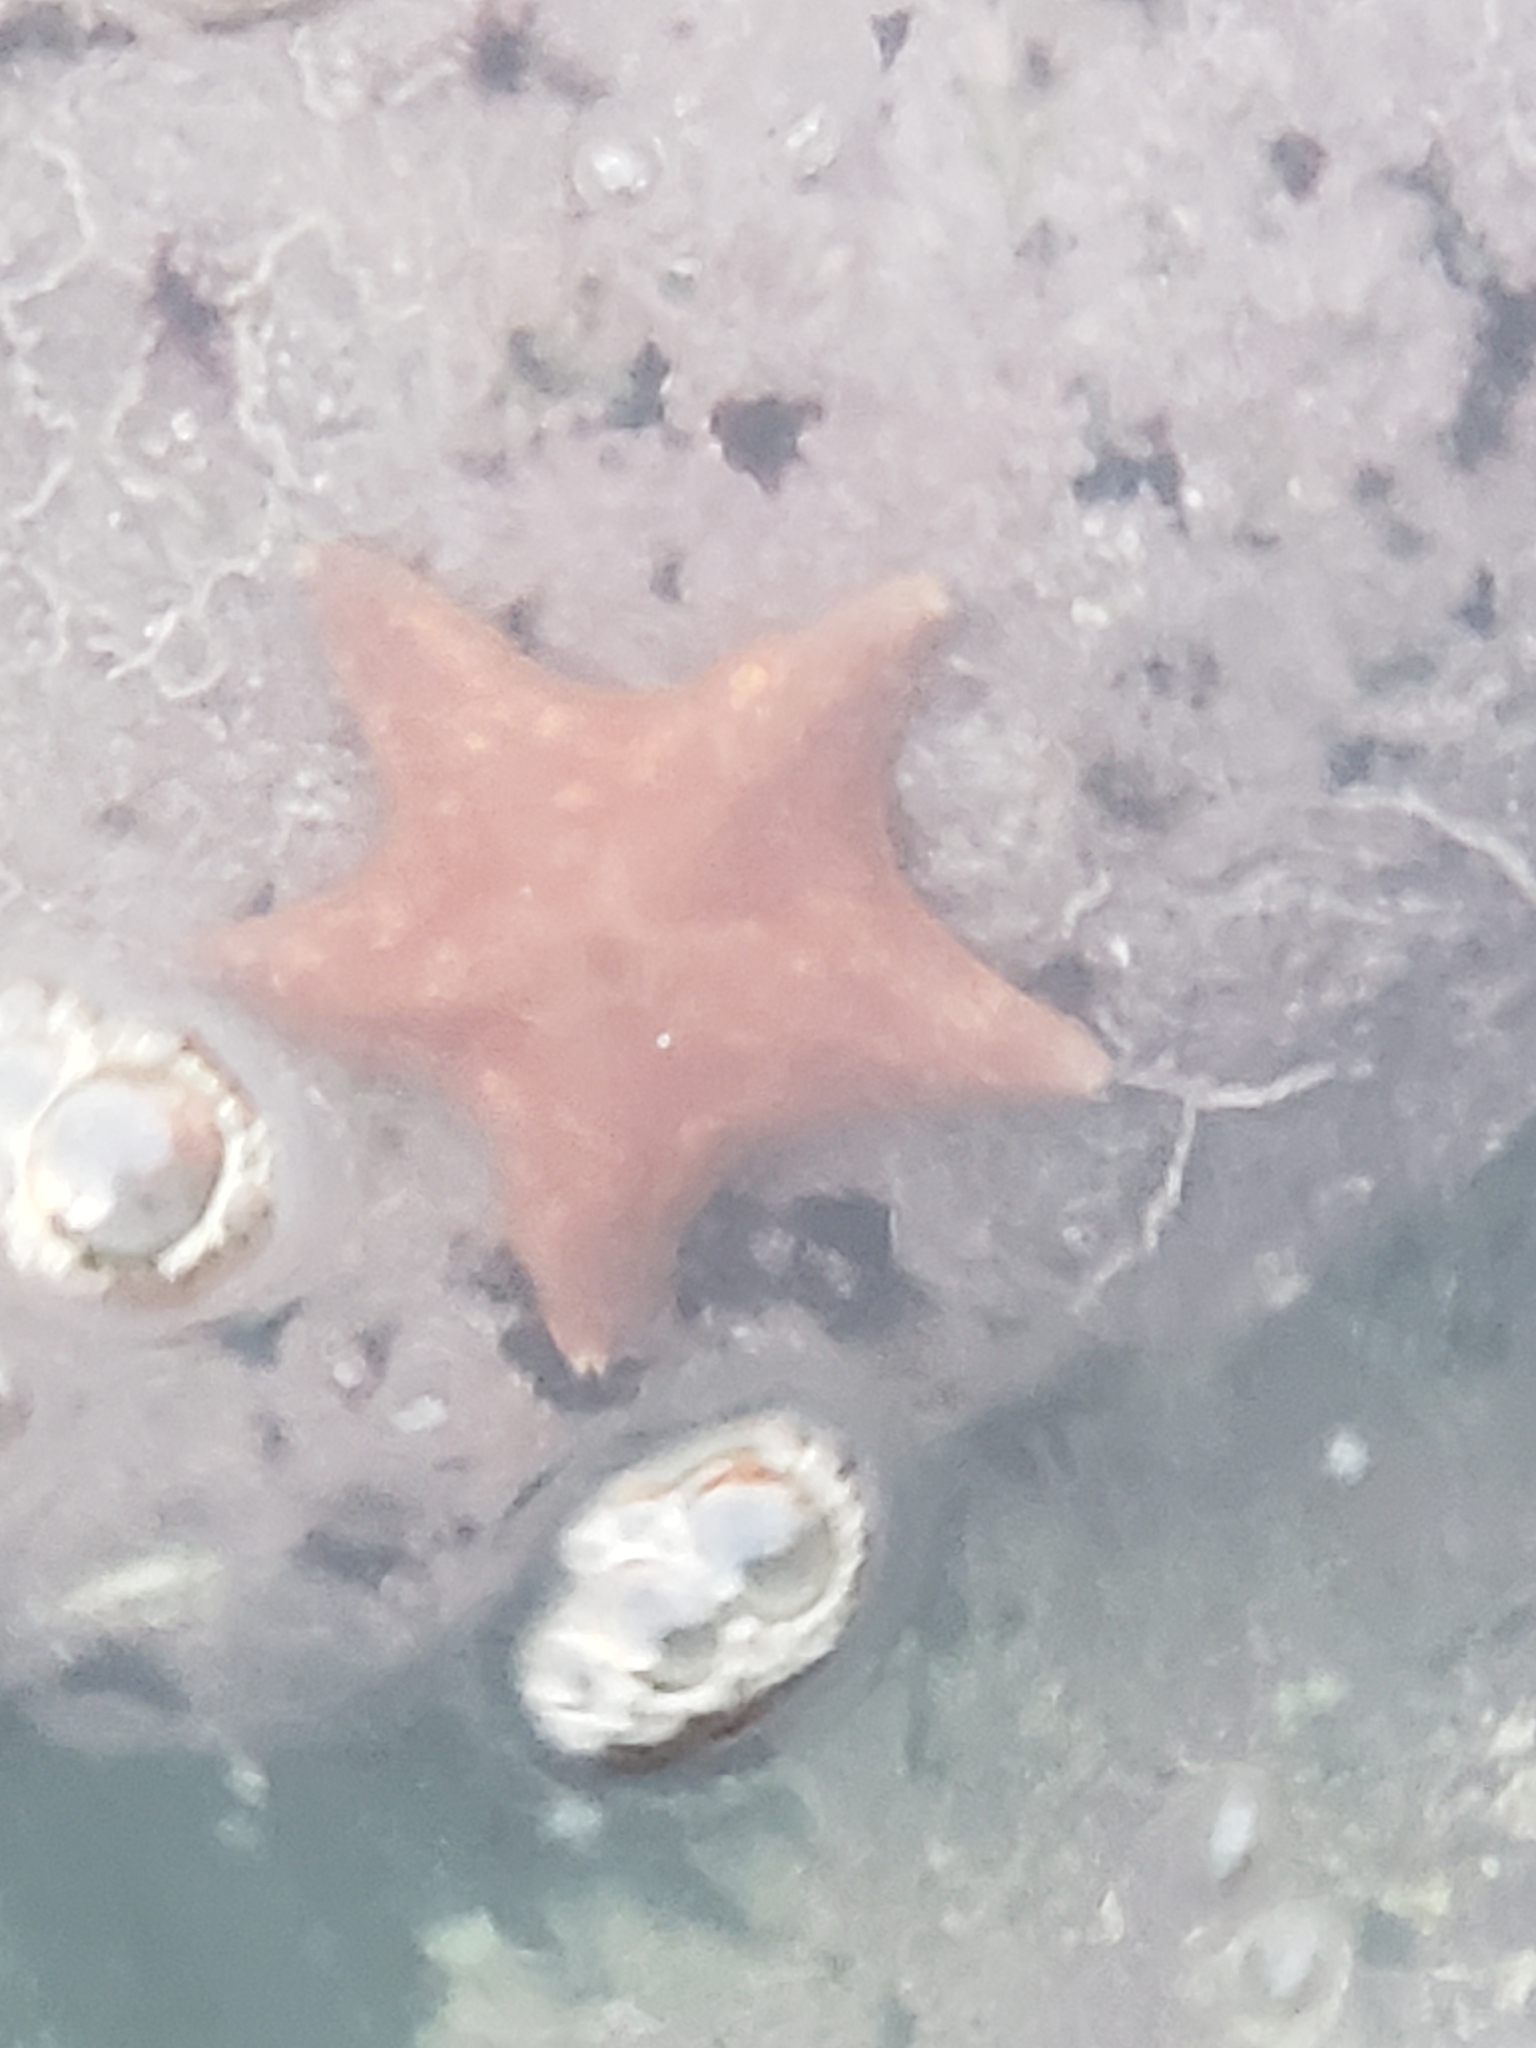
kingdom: Animalia
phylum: Echinodermata
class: Asteroidea
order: Valvatida
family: Asterinidae
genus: Patiria
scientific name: Patiria miniata
